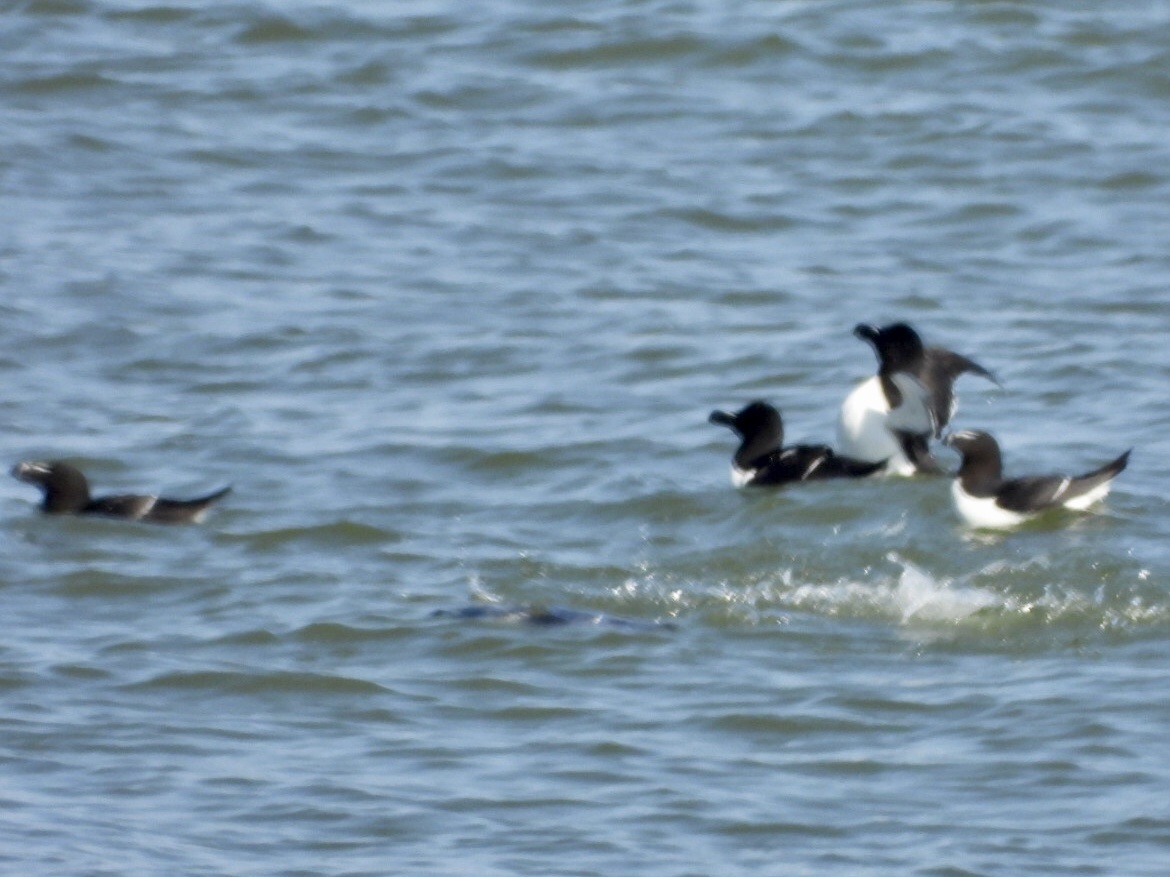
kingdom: Animalia
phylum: Chordata
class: Aves
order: Charadriiformes
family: Alcidae
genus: Alca
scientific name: Alca torda
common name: Razorbill
